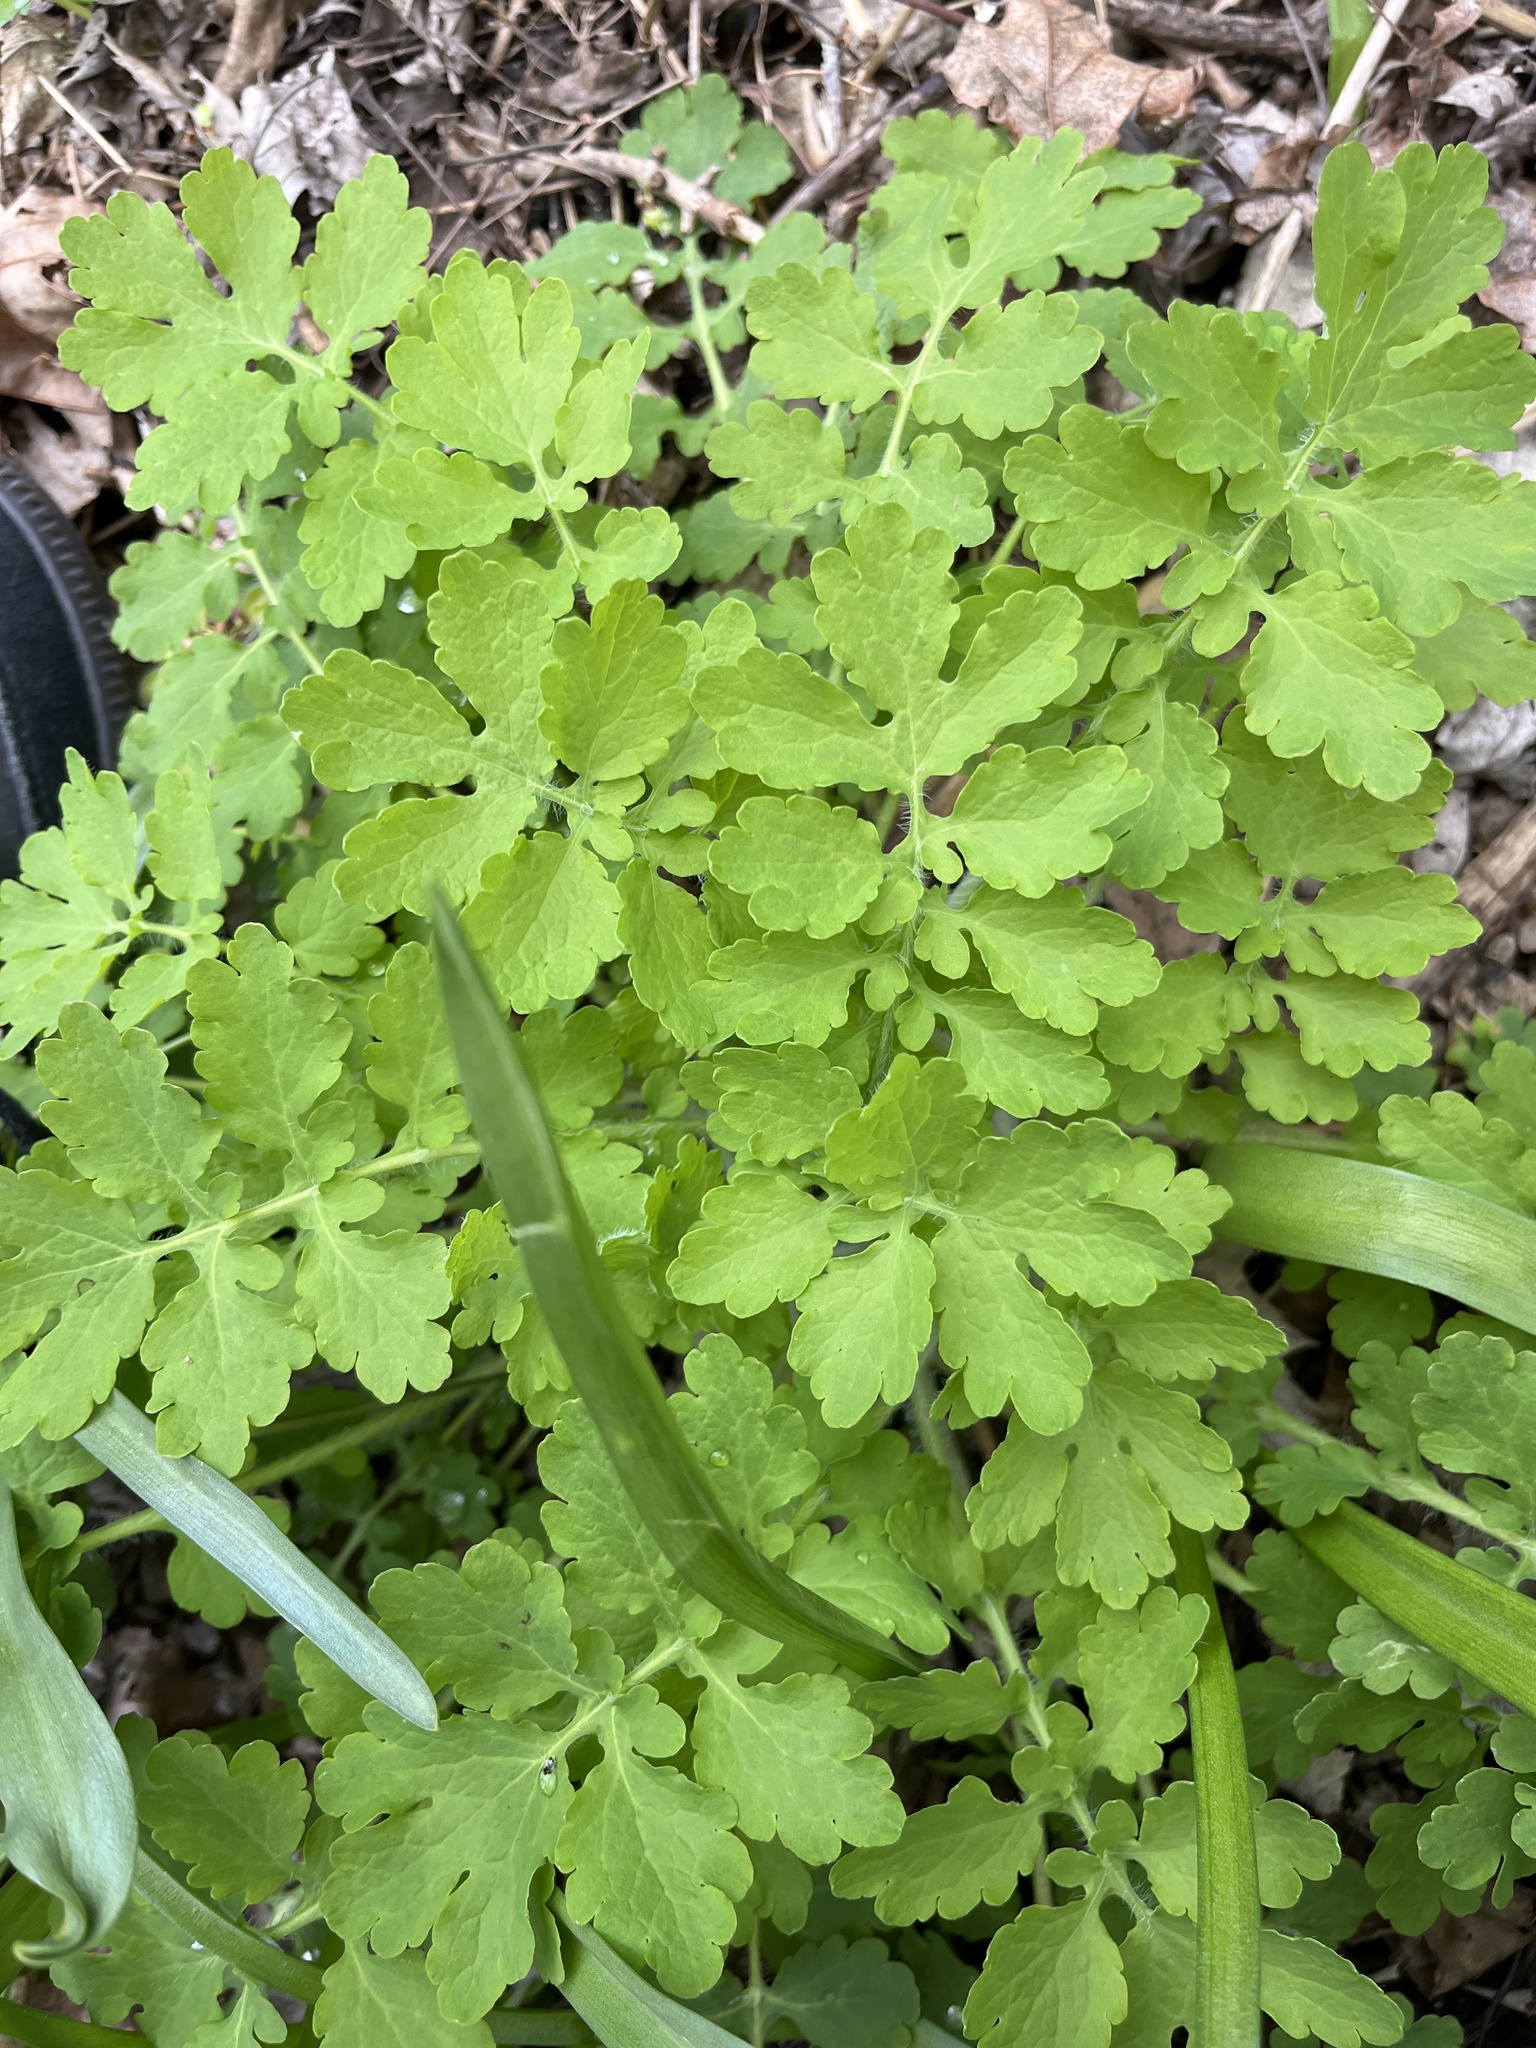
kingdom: Plantae
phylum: Tracheophyta
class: Magnoliopsida
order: Ranunculales
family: Papaveraceae
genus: Chelidonium
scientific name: Chelidonium majus
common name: Greater celandine
